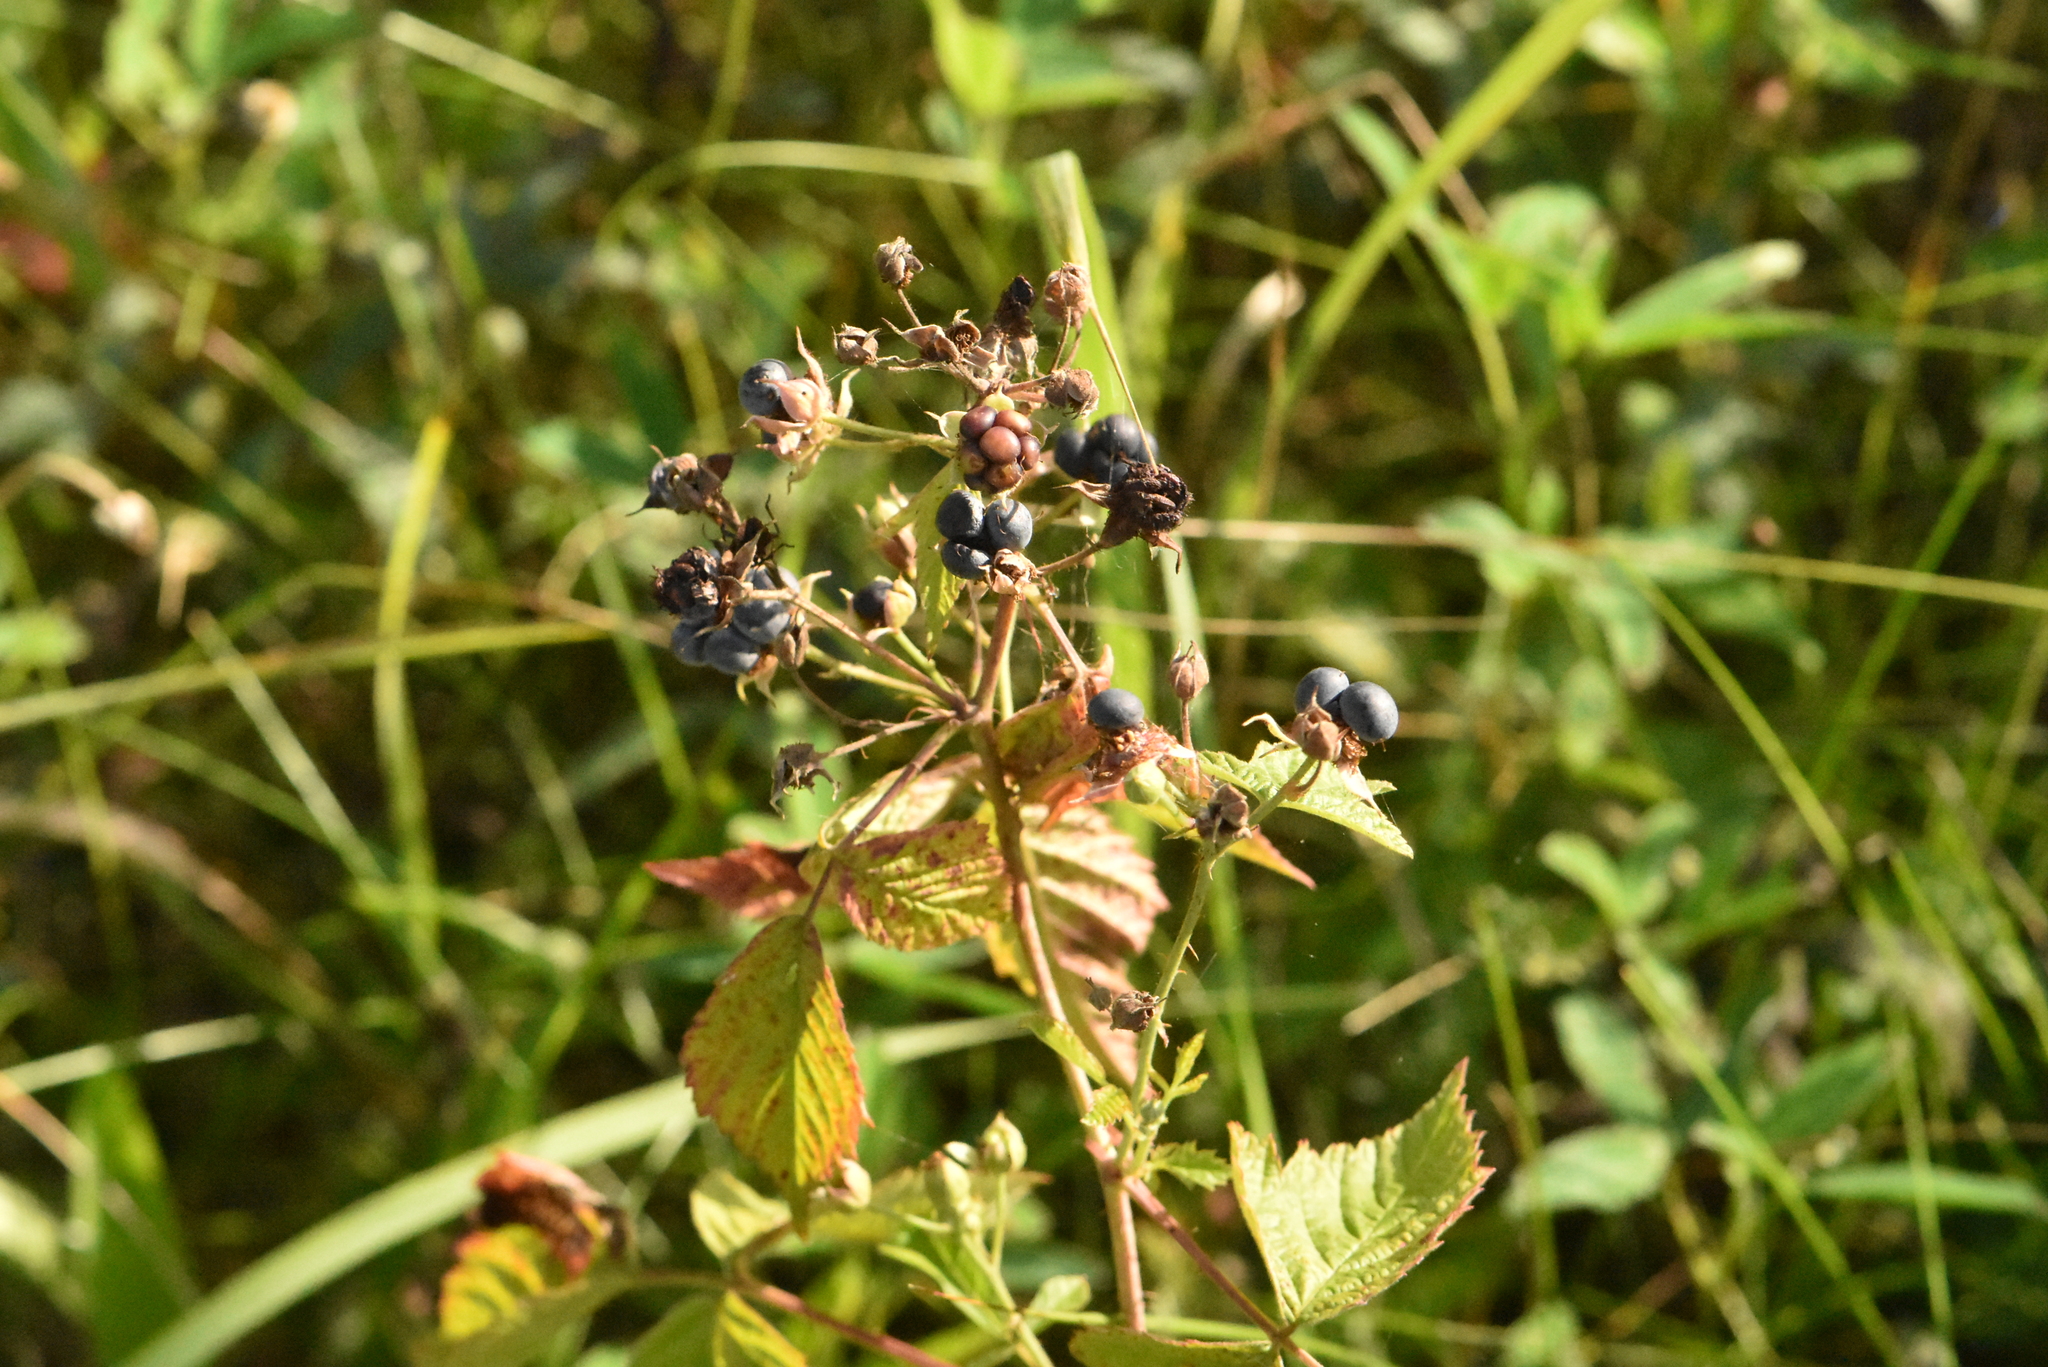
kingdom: Plantae
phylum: Tracheophyta
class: Magnoliopsida
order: Rosales
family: Rosaceae
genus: Rubus
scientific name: Rubus caesius
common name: Dewberry
